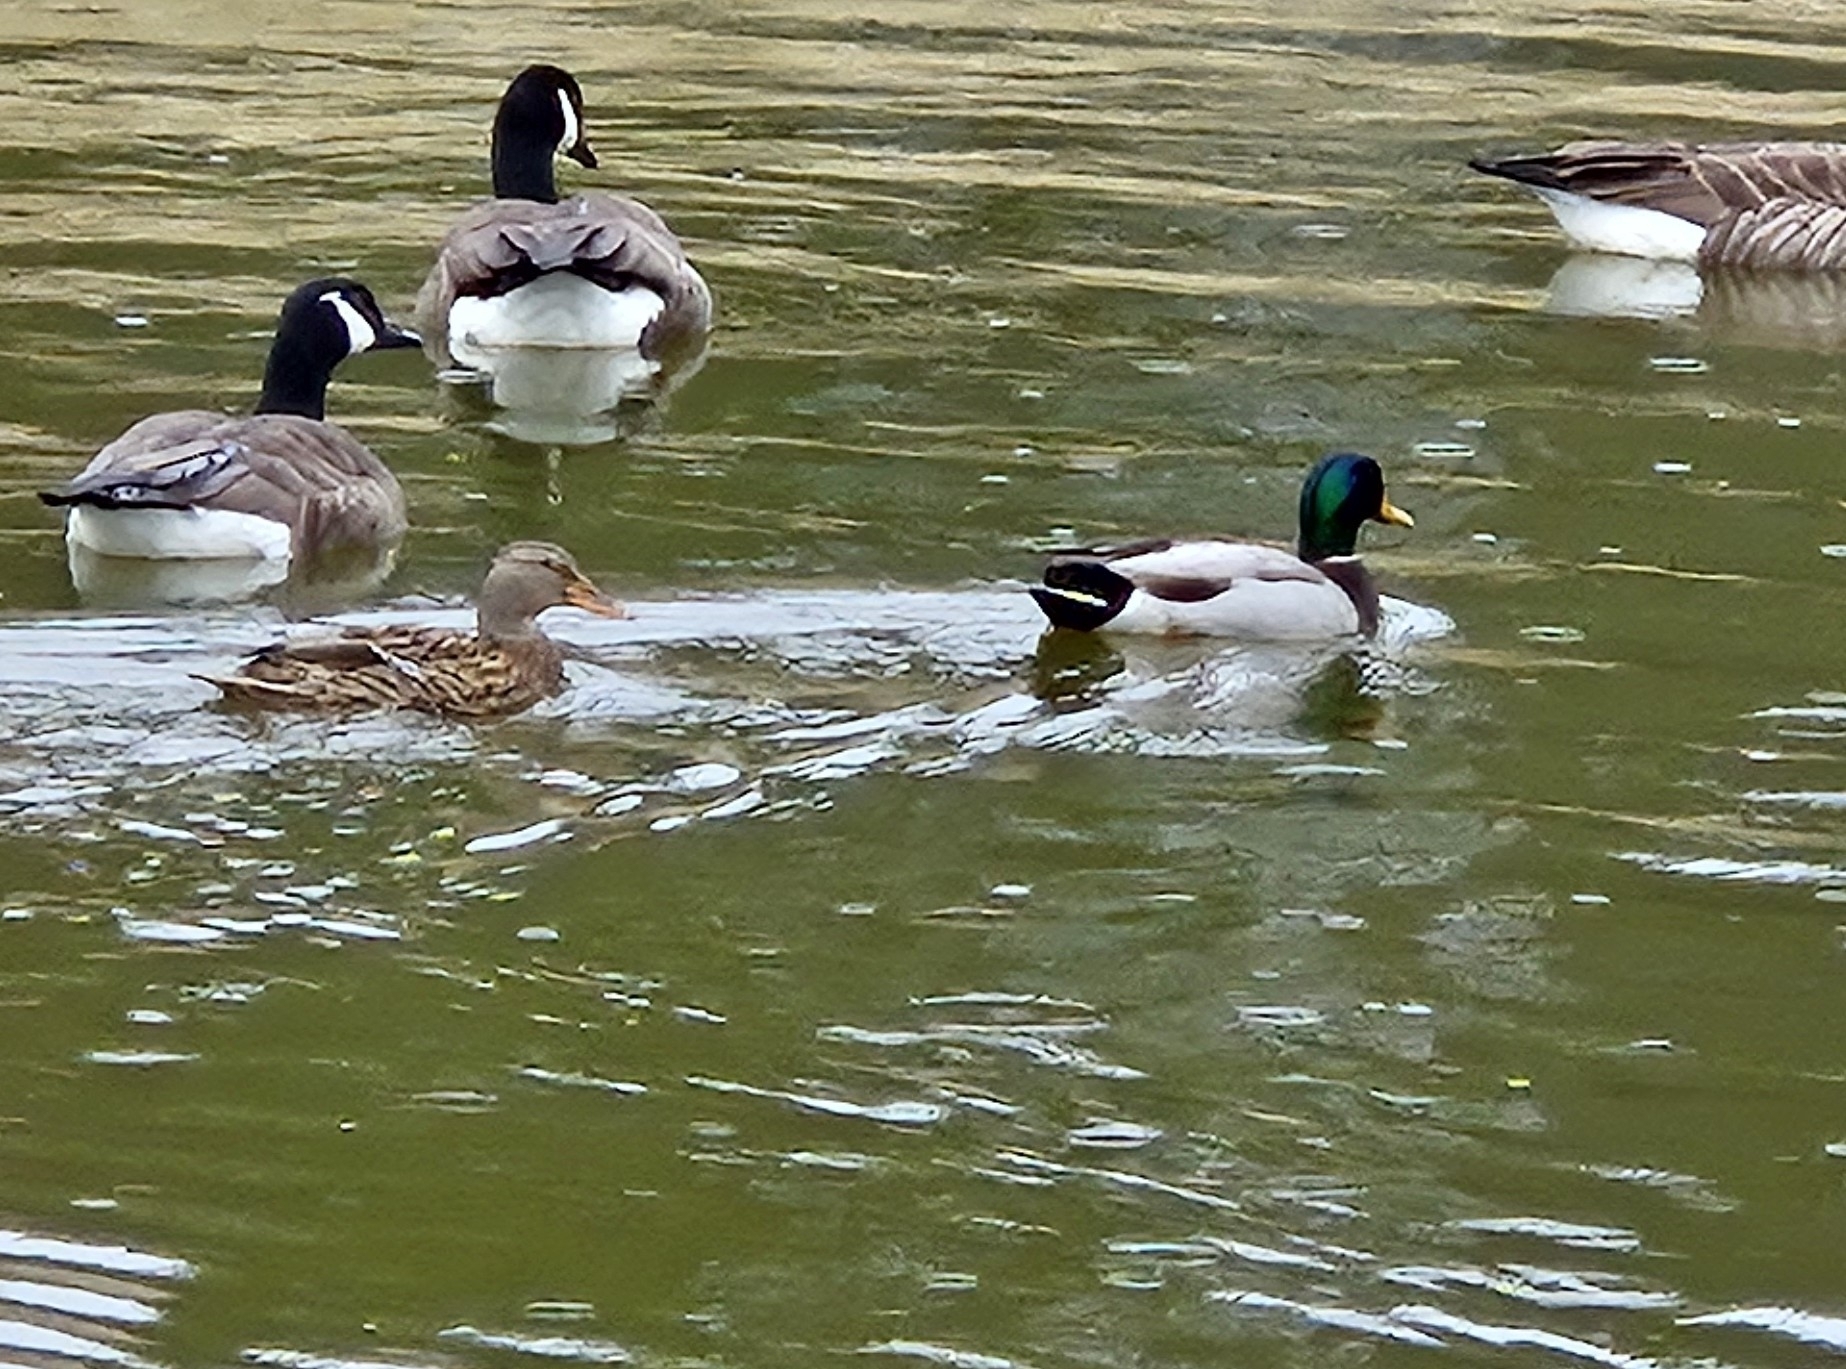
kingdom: Animalia
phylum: Chordata
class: Aves
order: Anseriformes
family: Anatidae
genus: Anas
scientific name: Anas platyrhynchos
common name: Mallard
